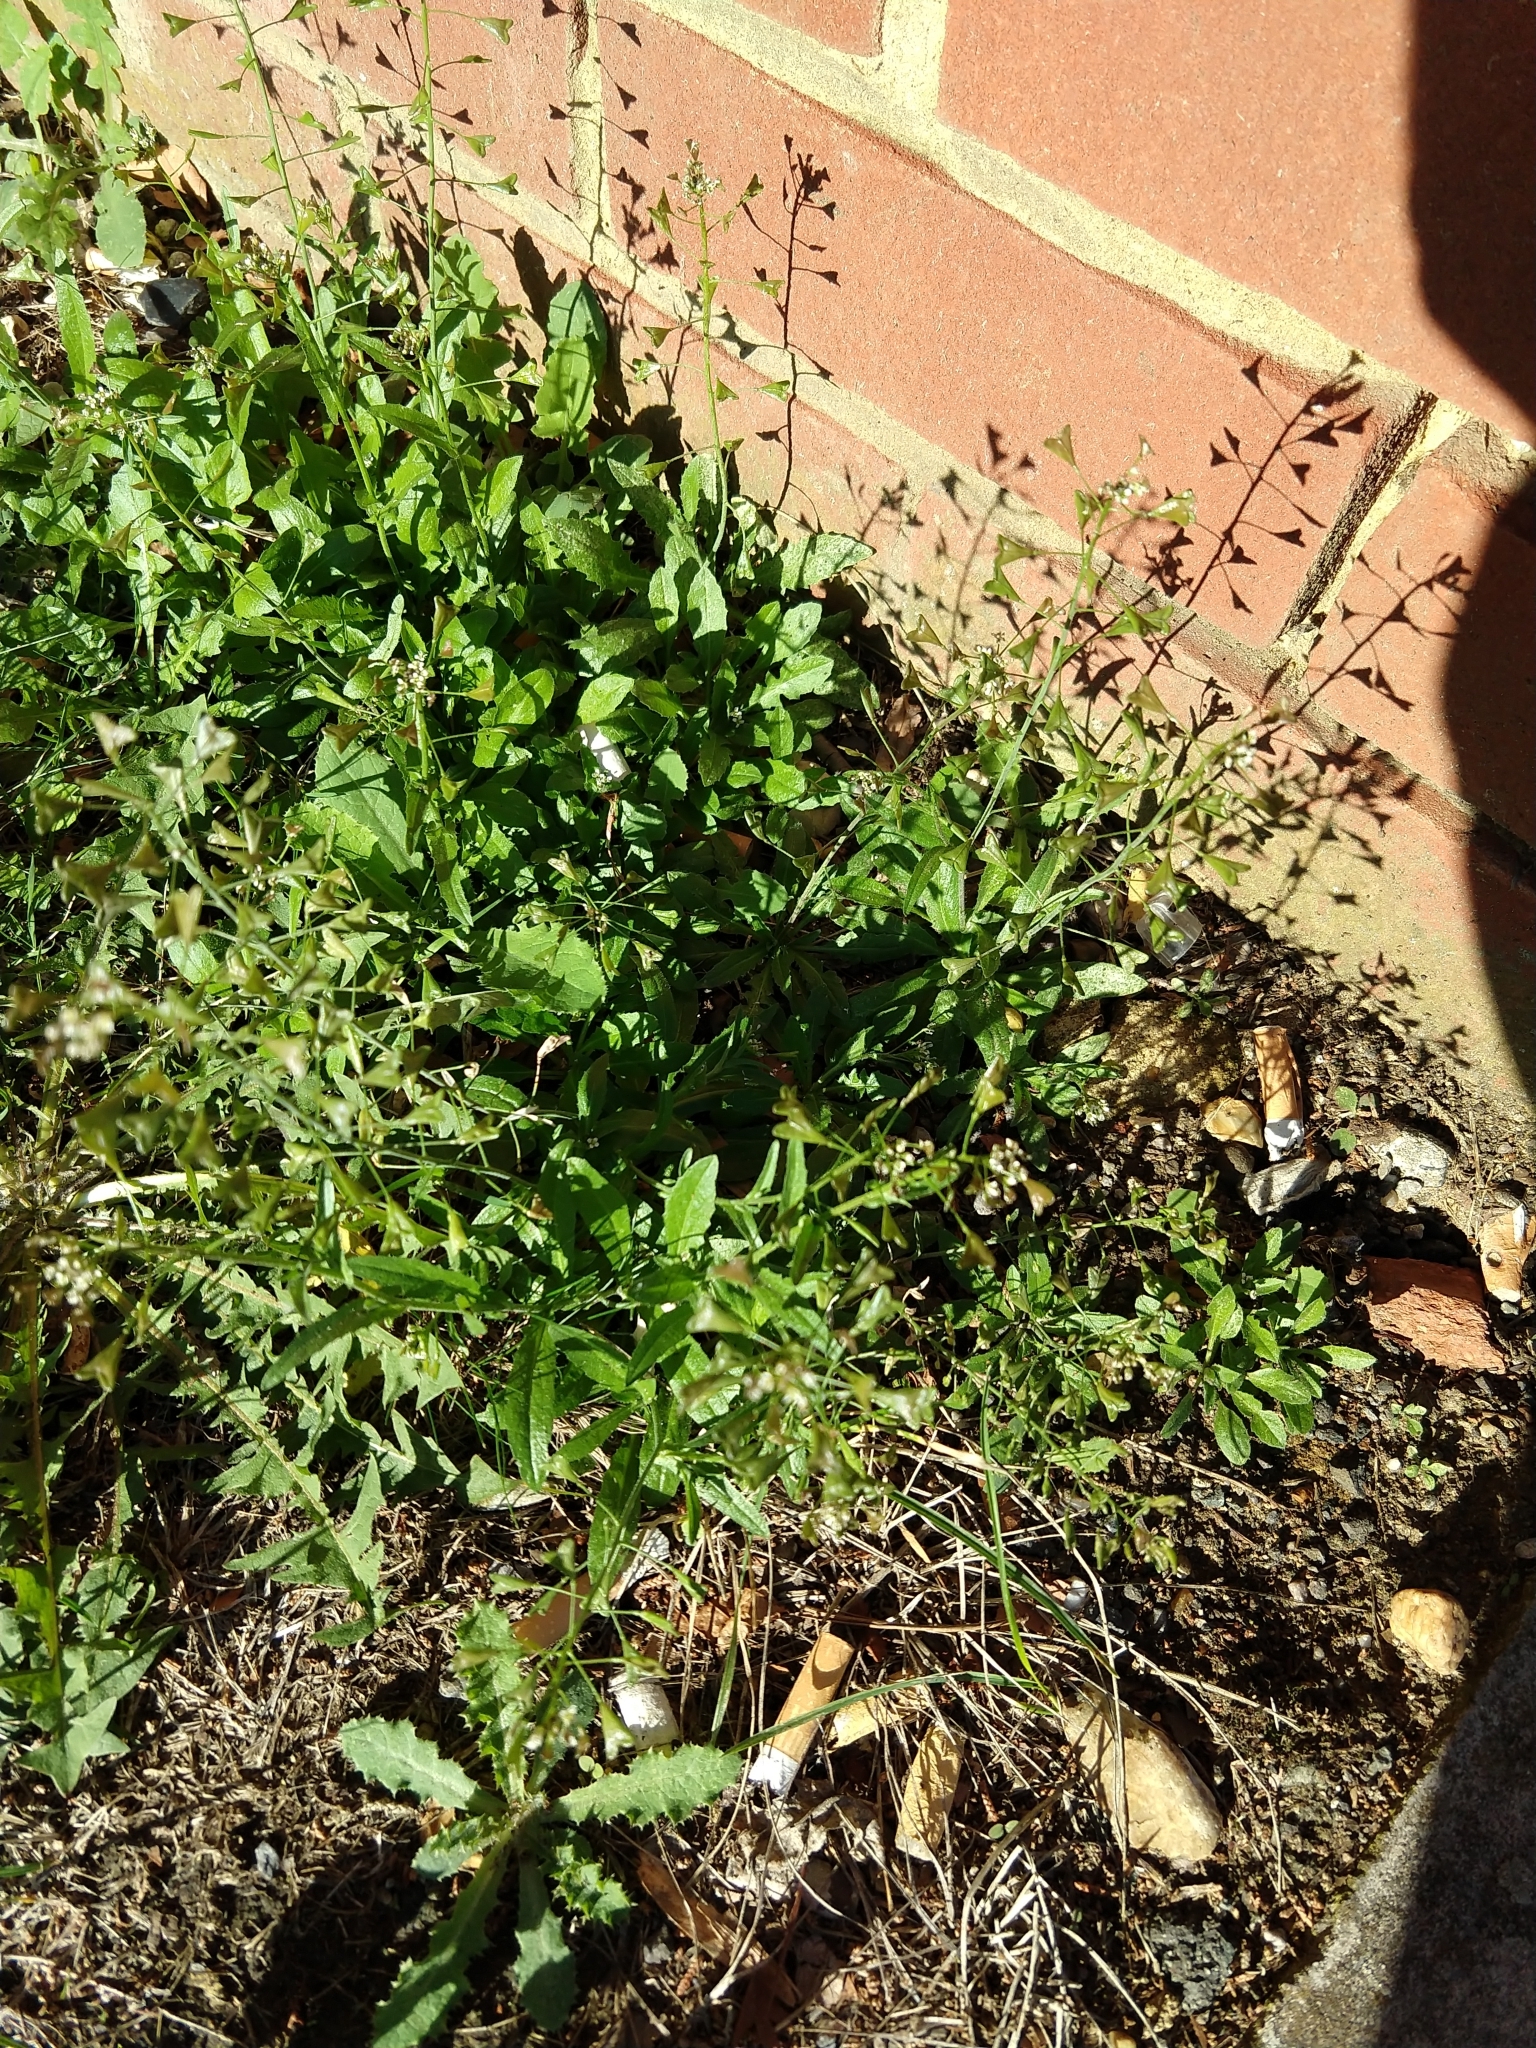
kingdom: Plantae
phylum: Tracheophyta
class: Magnoliopsida
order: Brassicales
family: Brassicaceae
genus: Capsella
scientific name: Capsella bursa-pastoris
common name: Shepherd's purse
